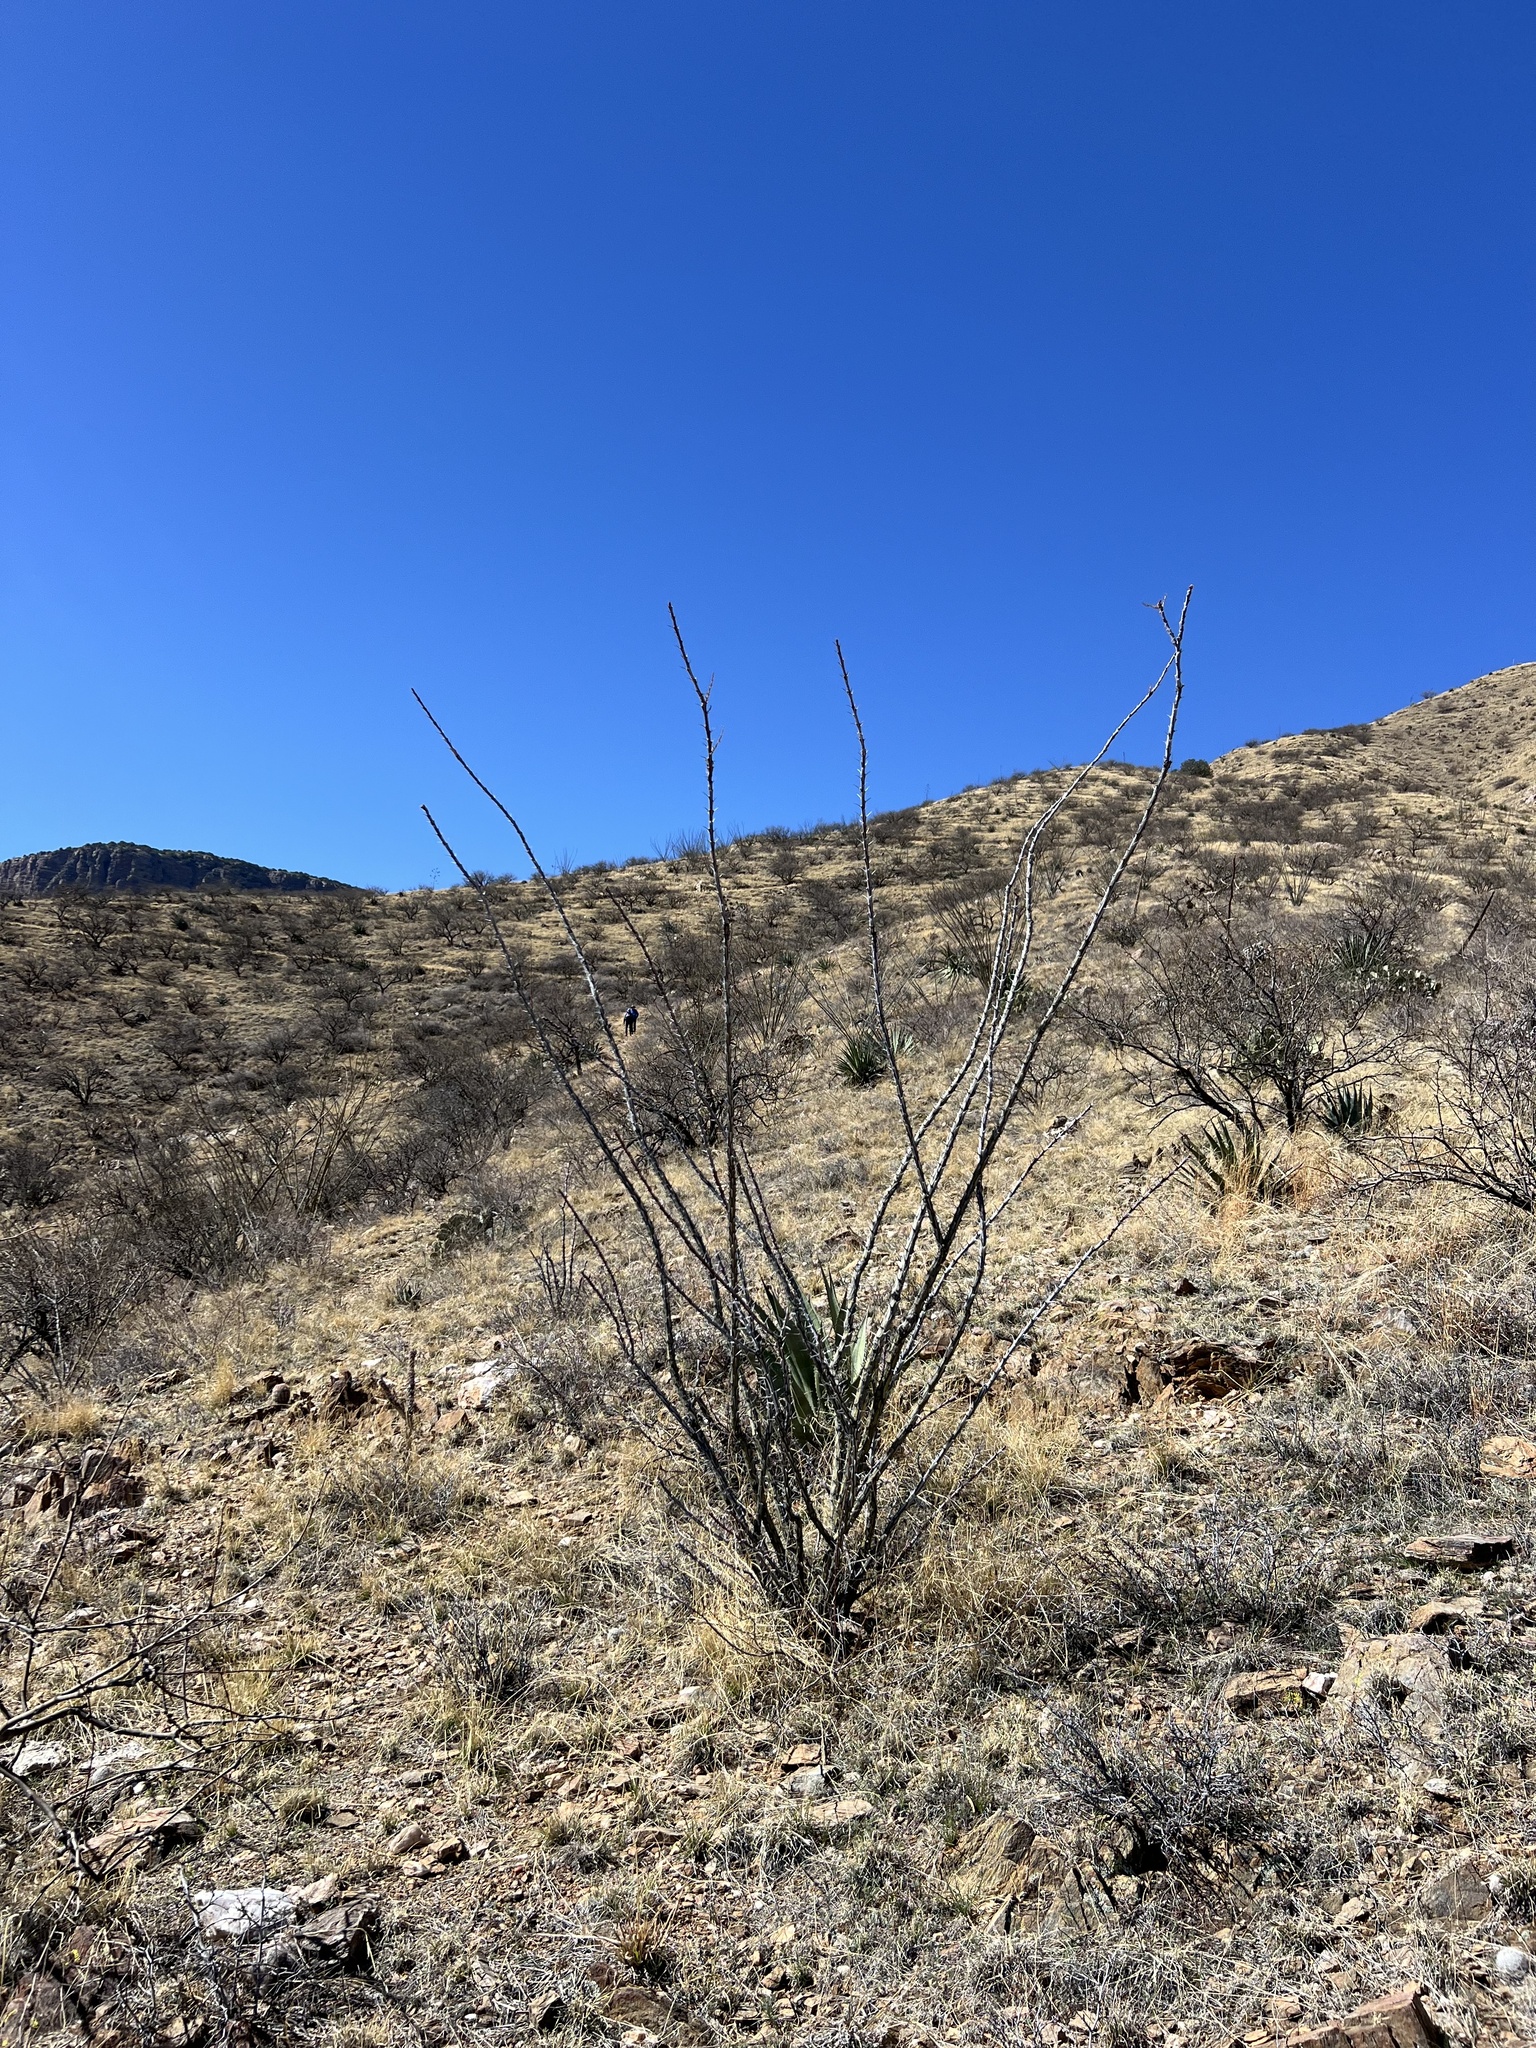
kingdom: Plantae
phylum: Tracheophyta
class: Magnoliopsida
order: Ericales
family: Fouquieriaceae
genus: Fouquieria
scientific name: Fouquieria splendens
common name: Vine-cactus
